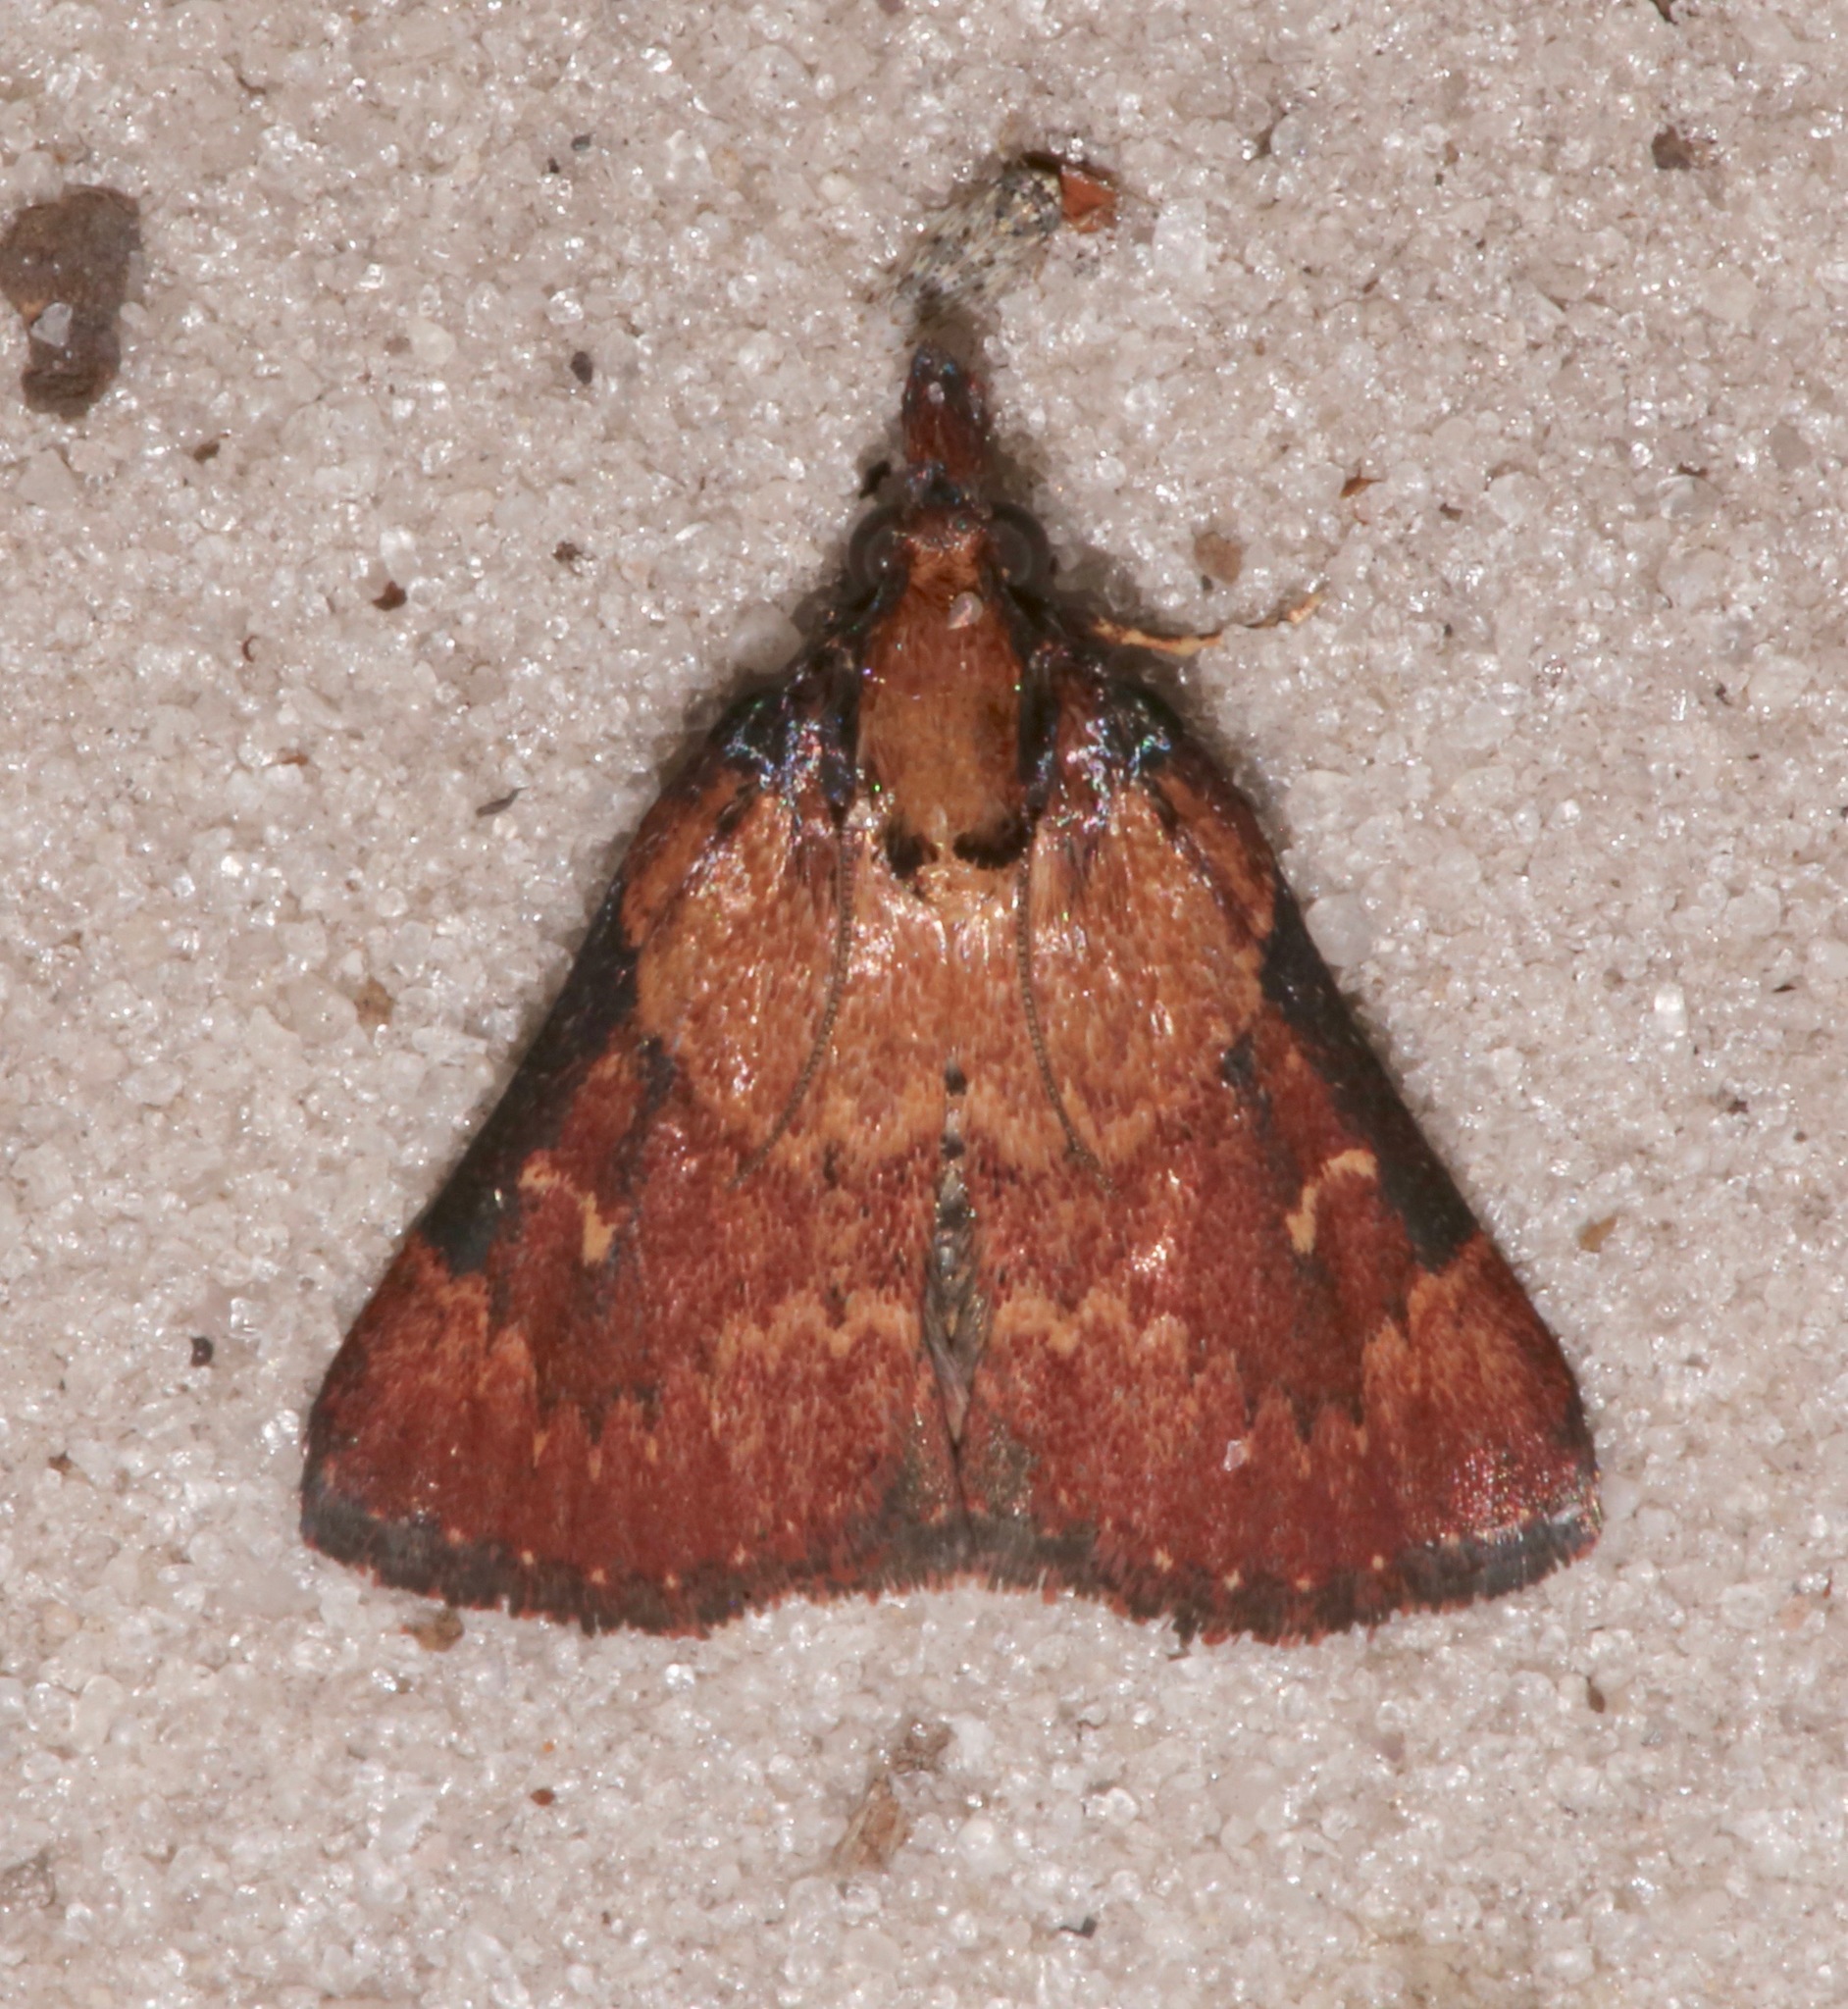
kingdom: Animalia
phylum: Arthropoda
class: Insecta
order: Lepidoptera
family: Pyralidae
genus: Omphalocera
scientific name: Omphalocera munroei
